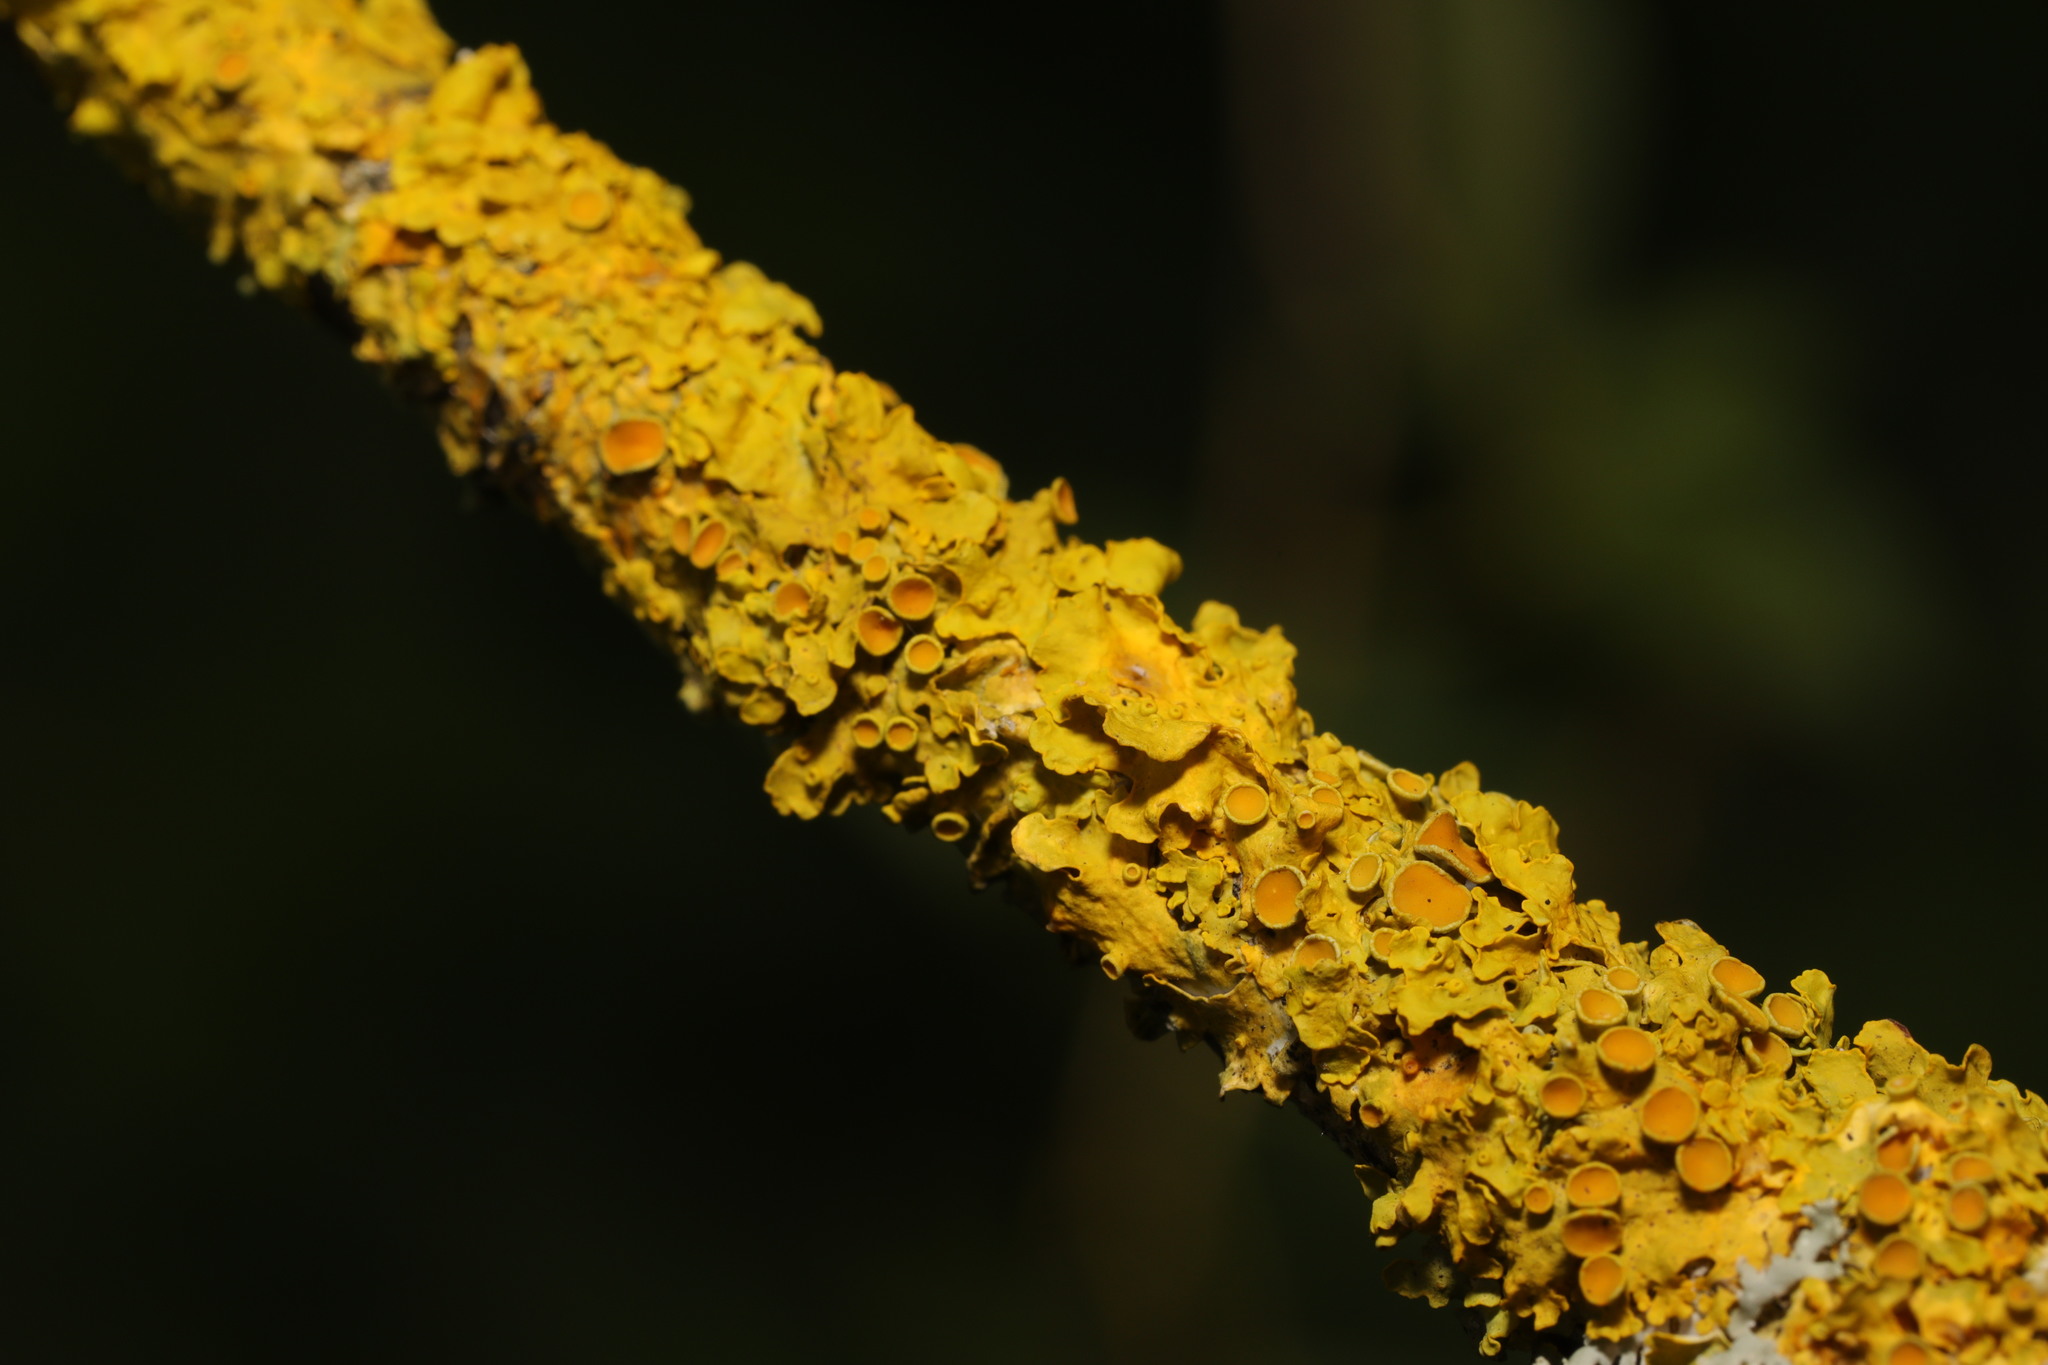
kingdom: Fungi
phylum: Ascomycota
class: Lecanoromycetes
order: Teloschistales
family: Teloschistaceae
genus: Xanthoria
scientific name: Xanthoria parietina
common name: Common orange lichen
